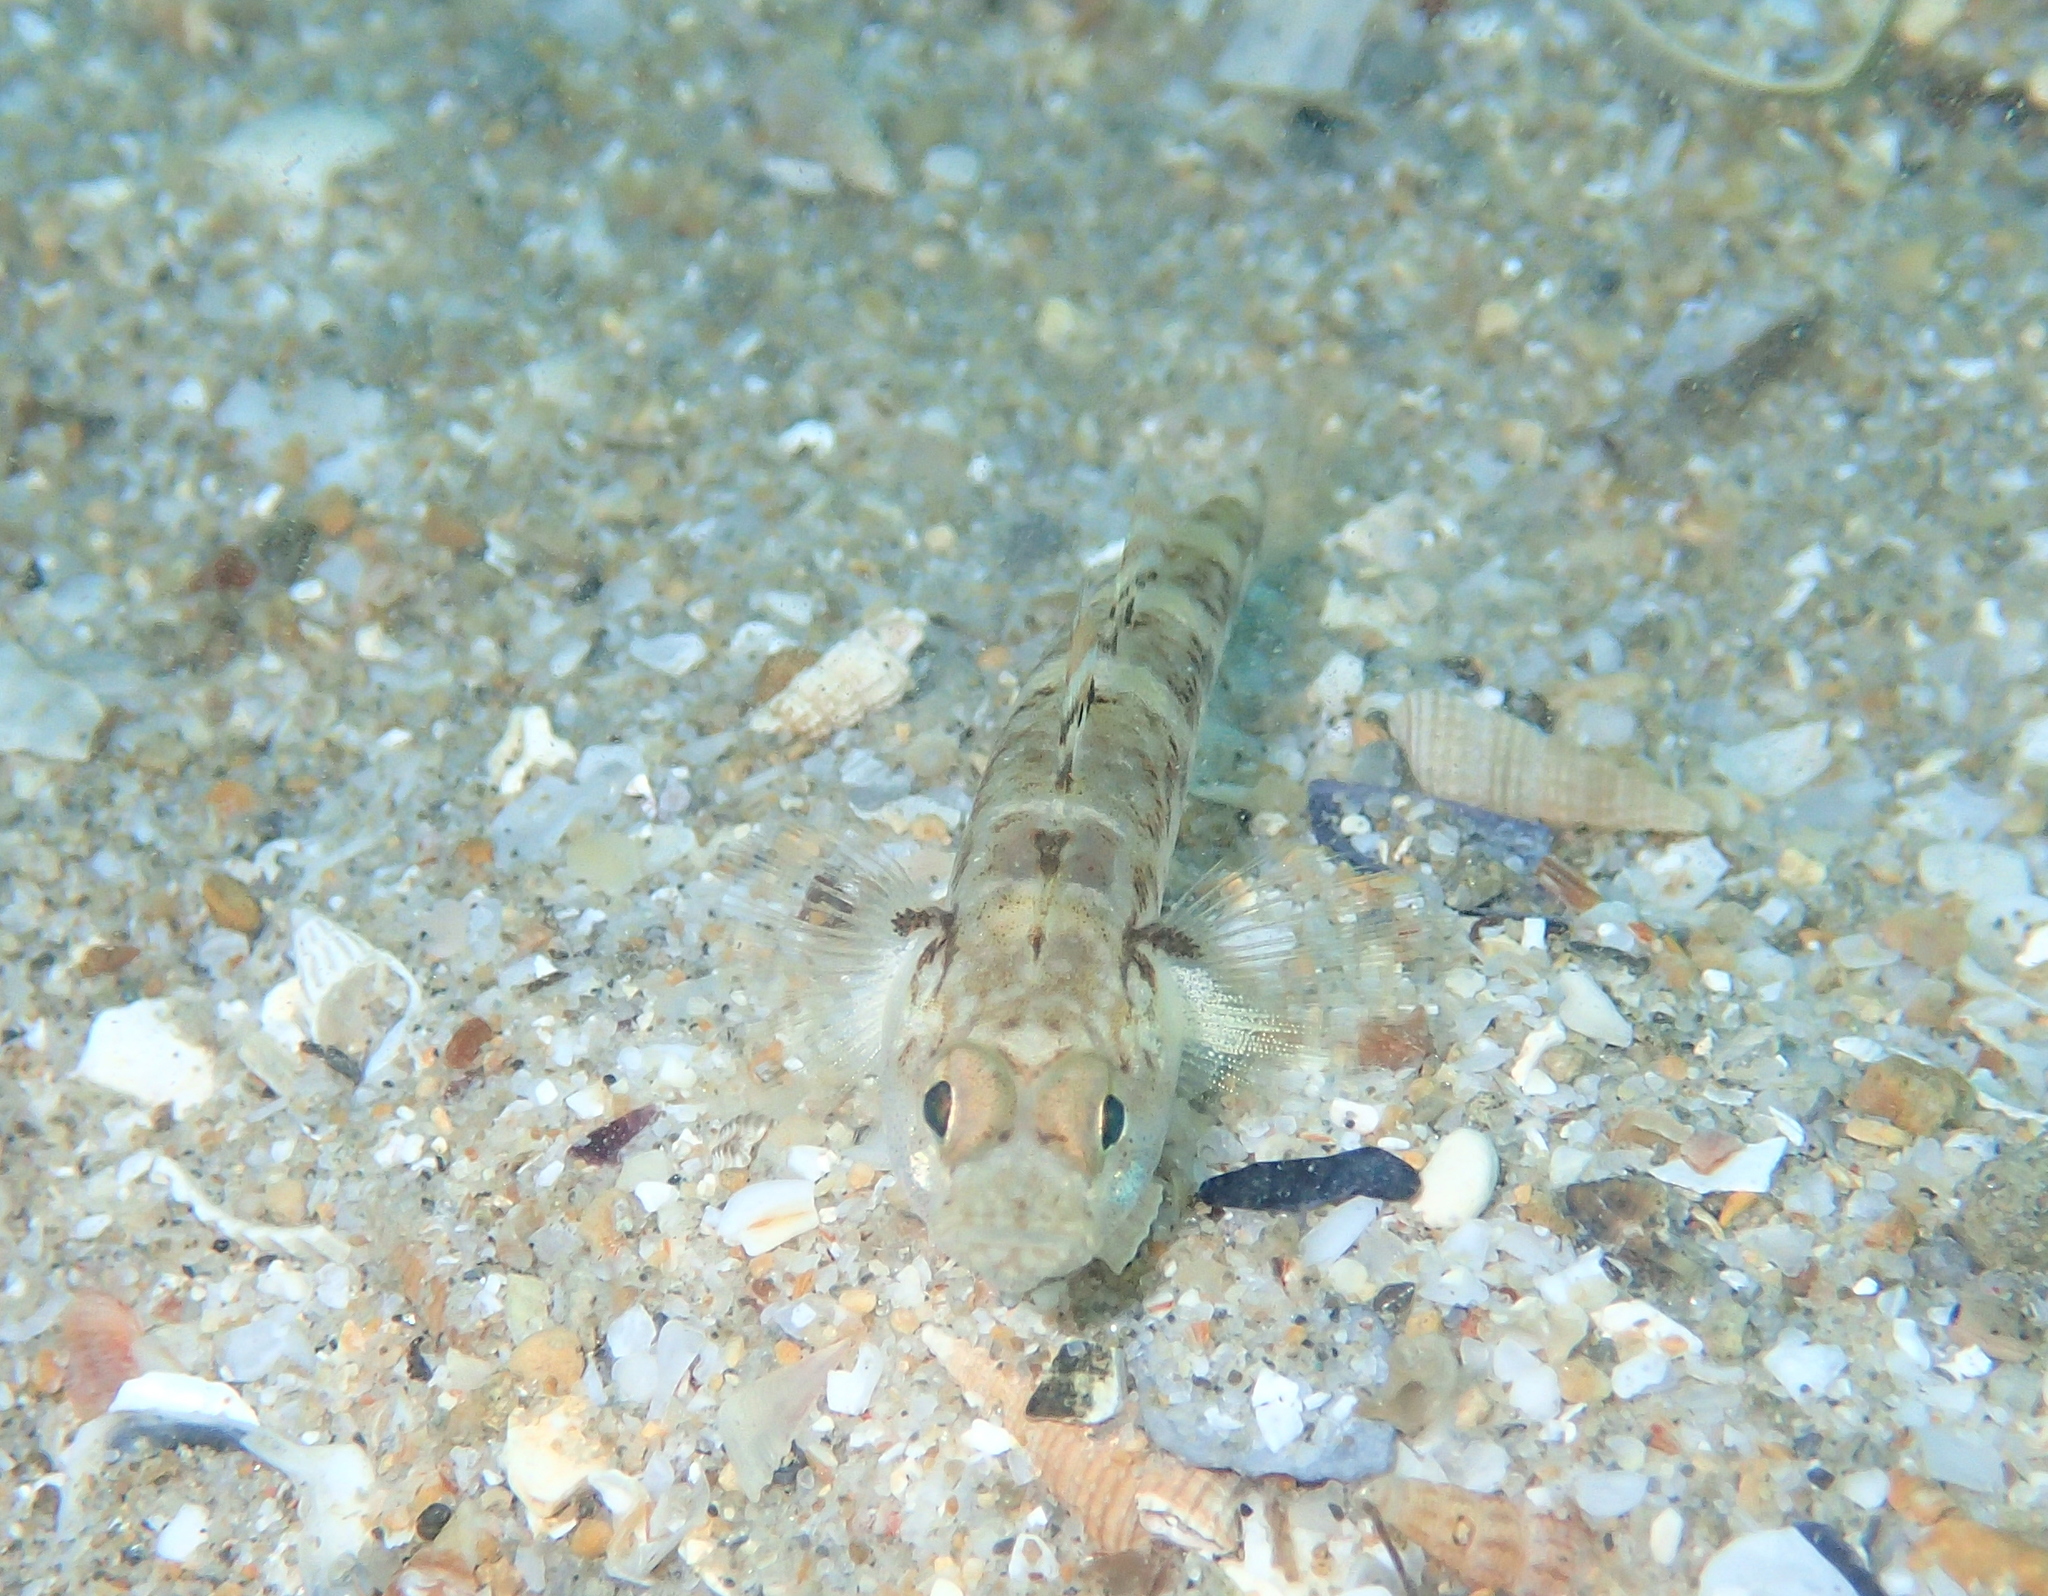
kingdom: Animalia
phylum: Chordata
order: Perciformes
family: Gobiidae
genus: Pomatoschistus
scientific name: Pomatoschistus pictus
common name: Painted goby
